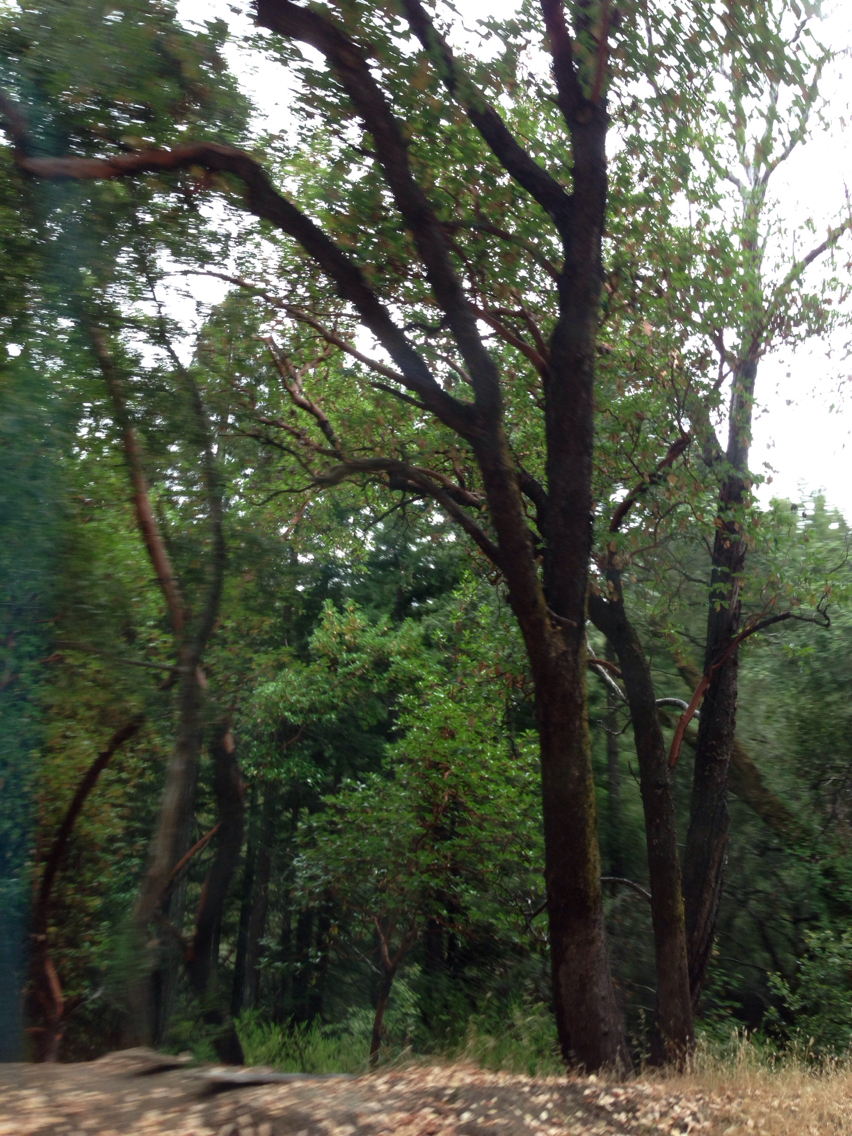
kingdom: Plantae
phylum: Tracheophyta
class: Magnoliopsida
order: Ericales
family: Ericaceae
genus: Arbutus
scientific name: Arbutus menziesii
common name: Pacific madrone
